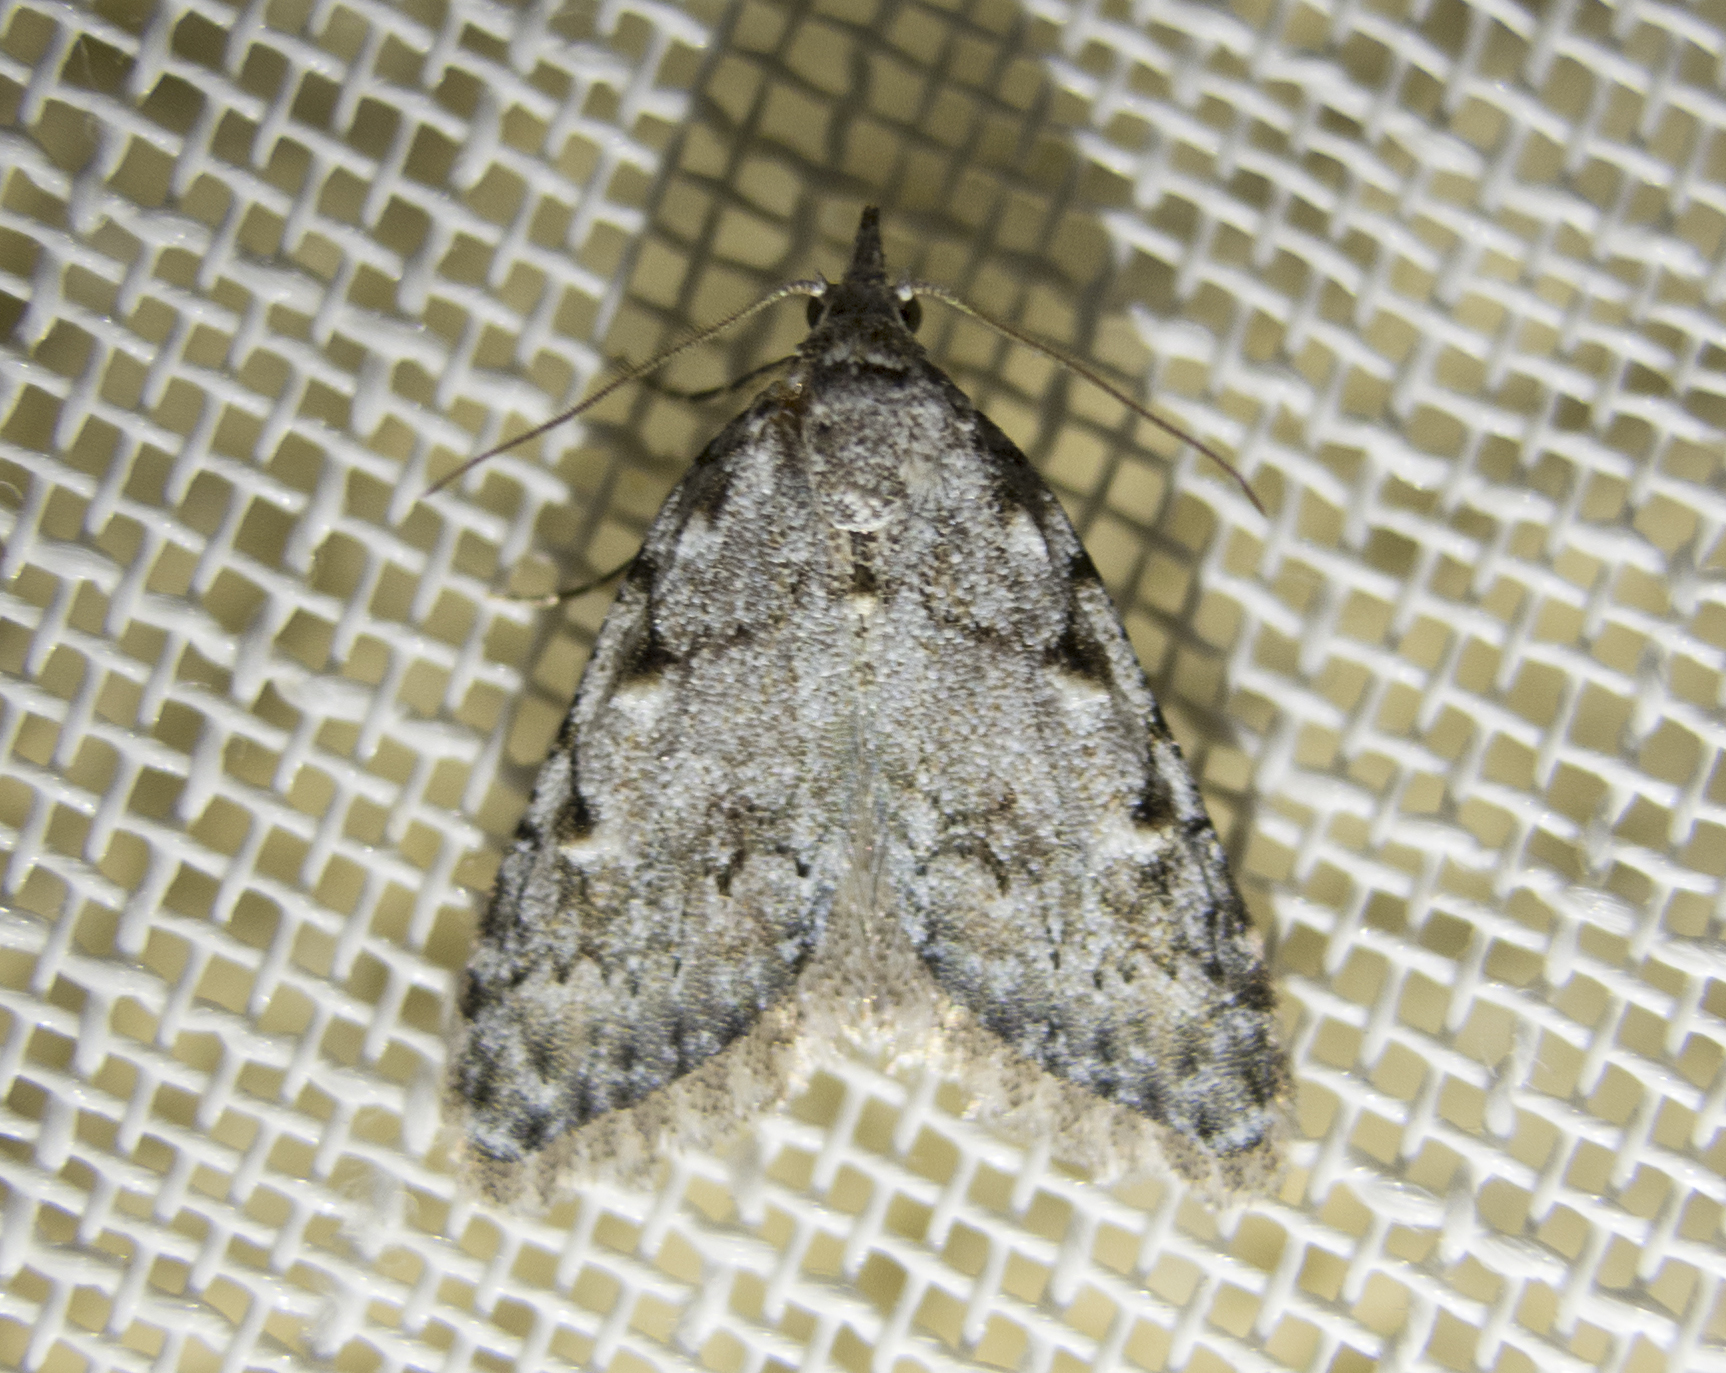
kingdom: Animalia
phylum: Arthropoda
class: Insecta
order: Lepidoptera
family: Nolidae
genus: Nola
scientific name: Nola cicatricalis
